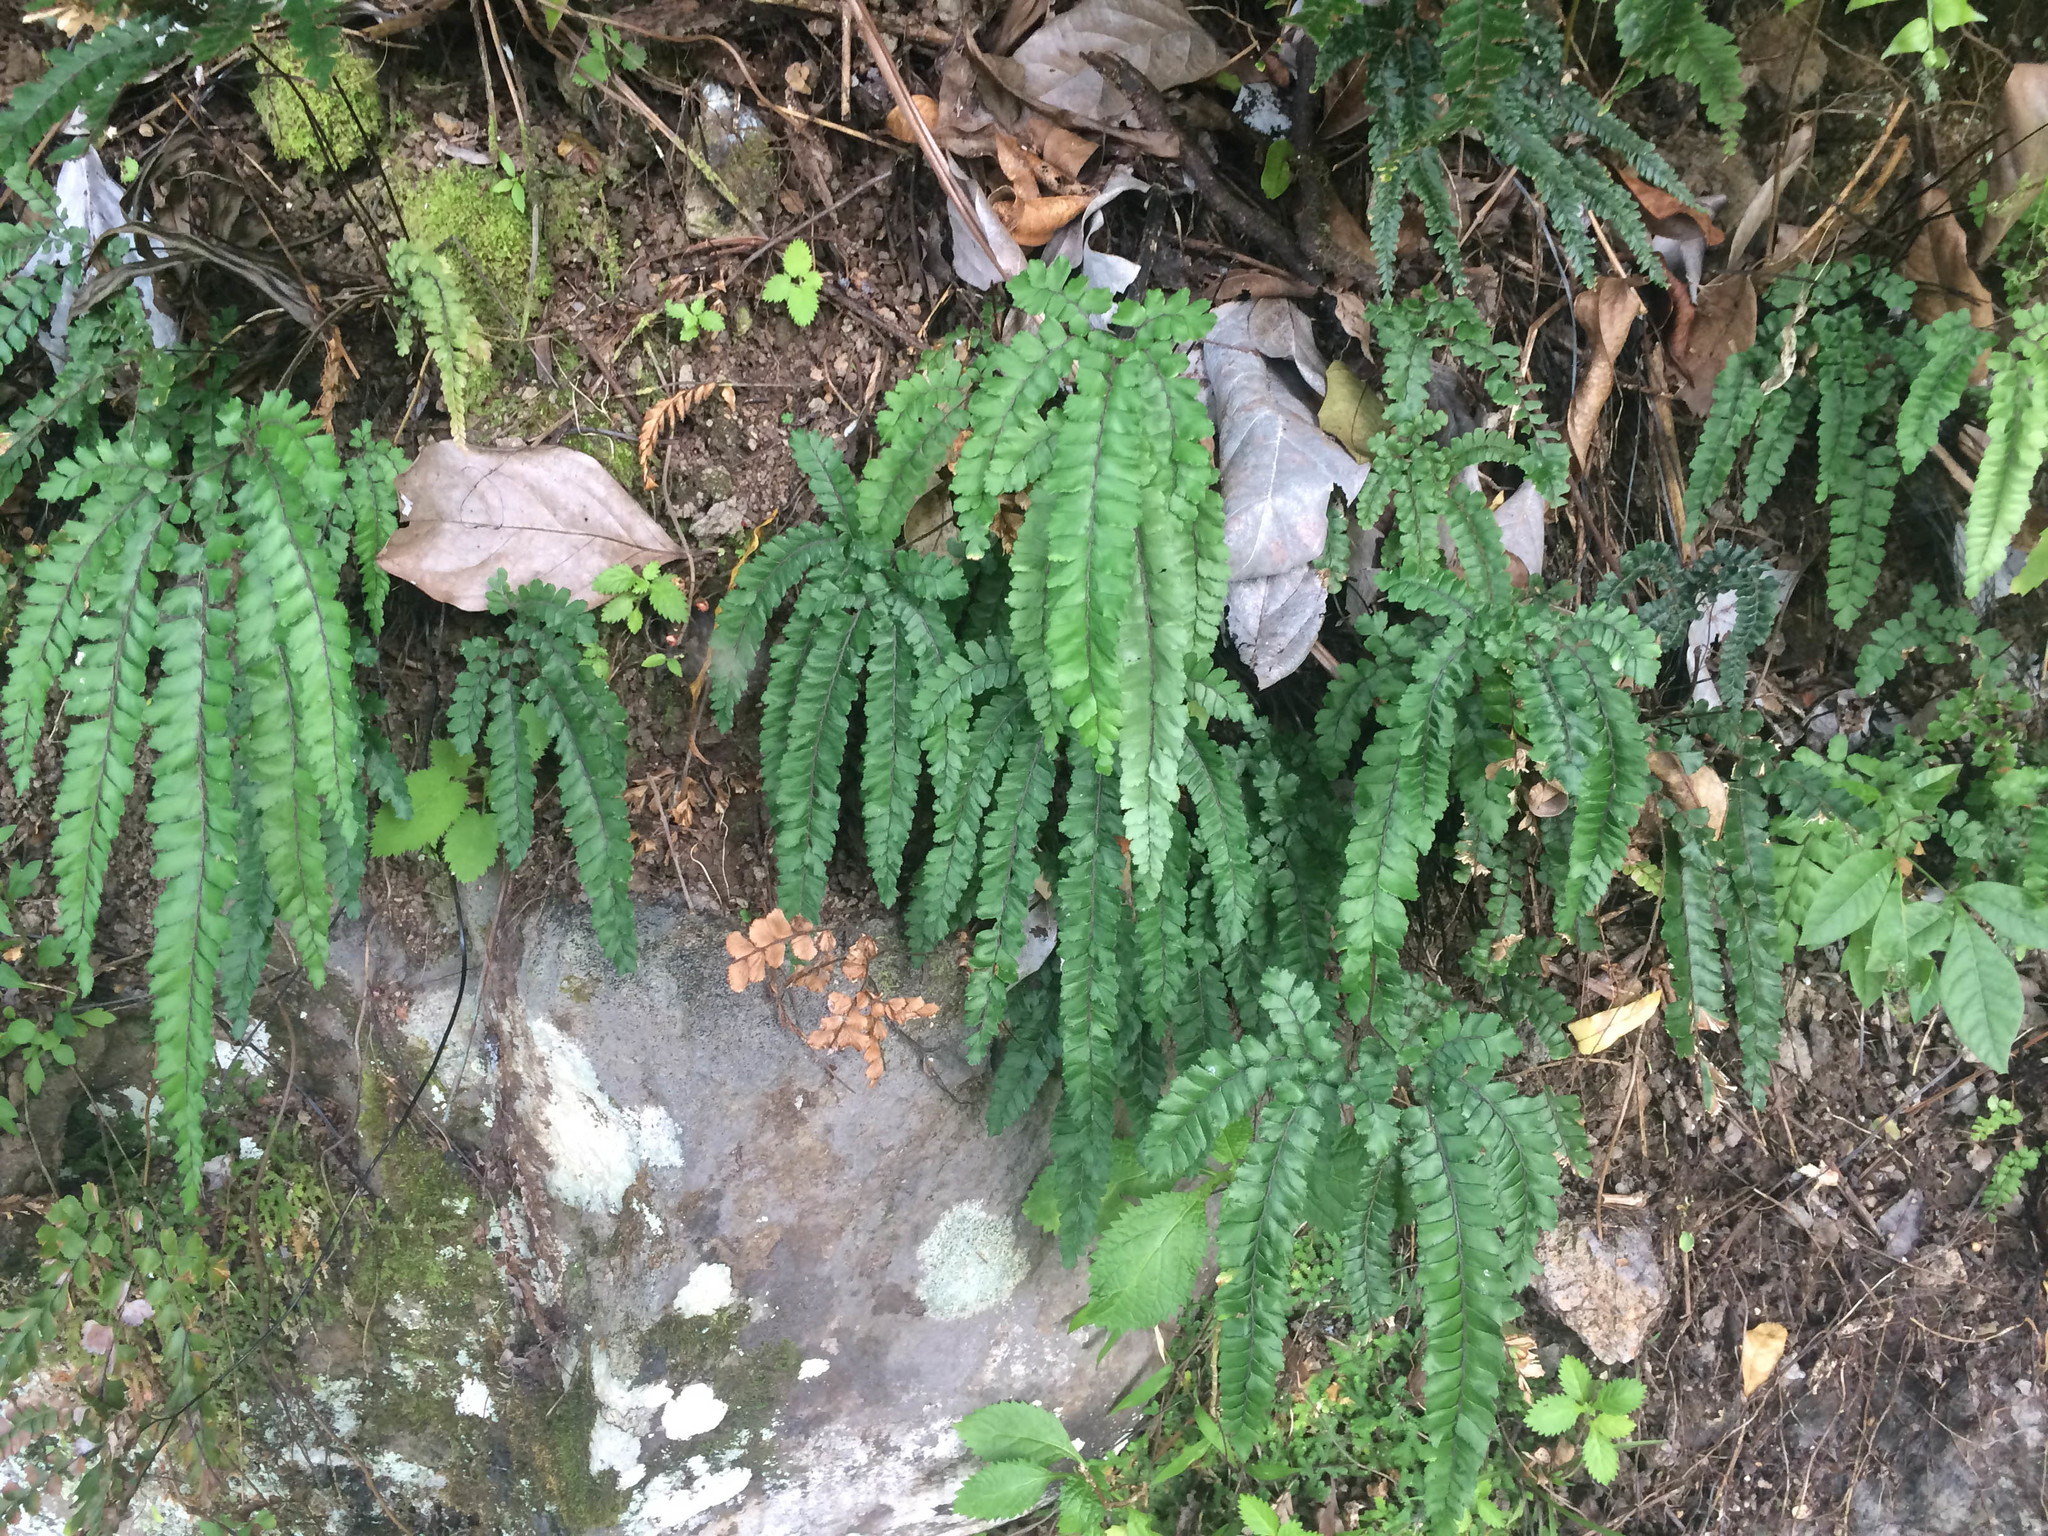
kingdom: Plantae
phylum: Tracheophyta
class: Polypodiopsida
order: Polypodiales
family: Pteridaceae
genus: Adiantum
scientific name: Adiantum hispidulum
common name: Rough maidenhair
